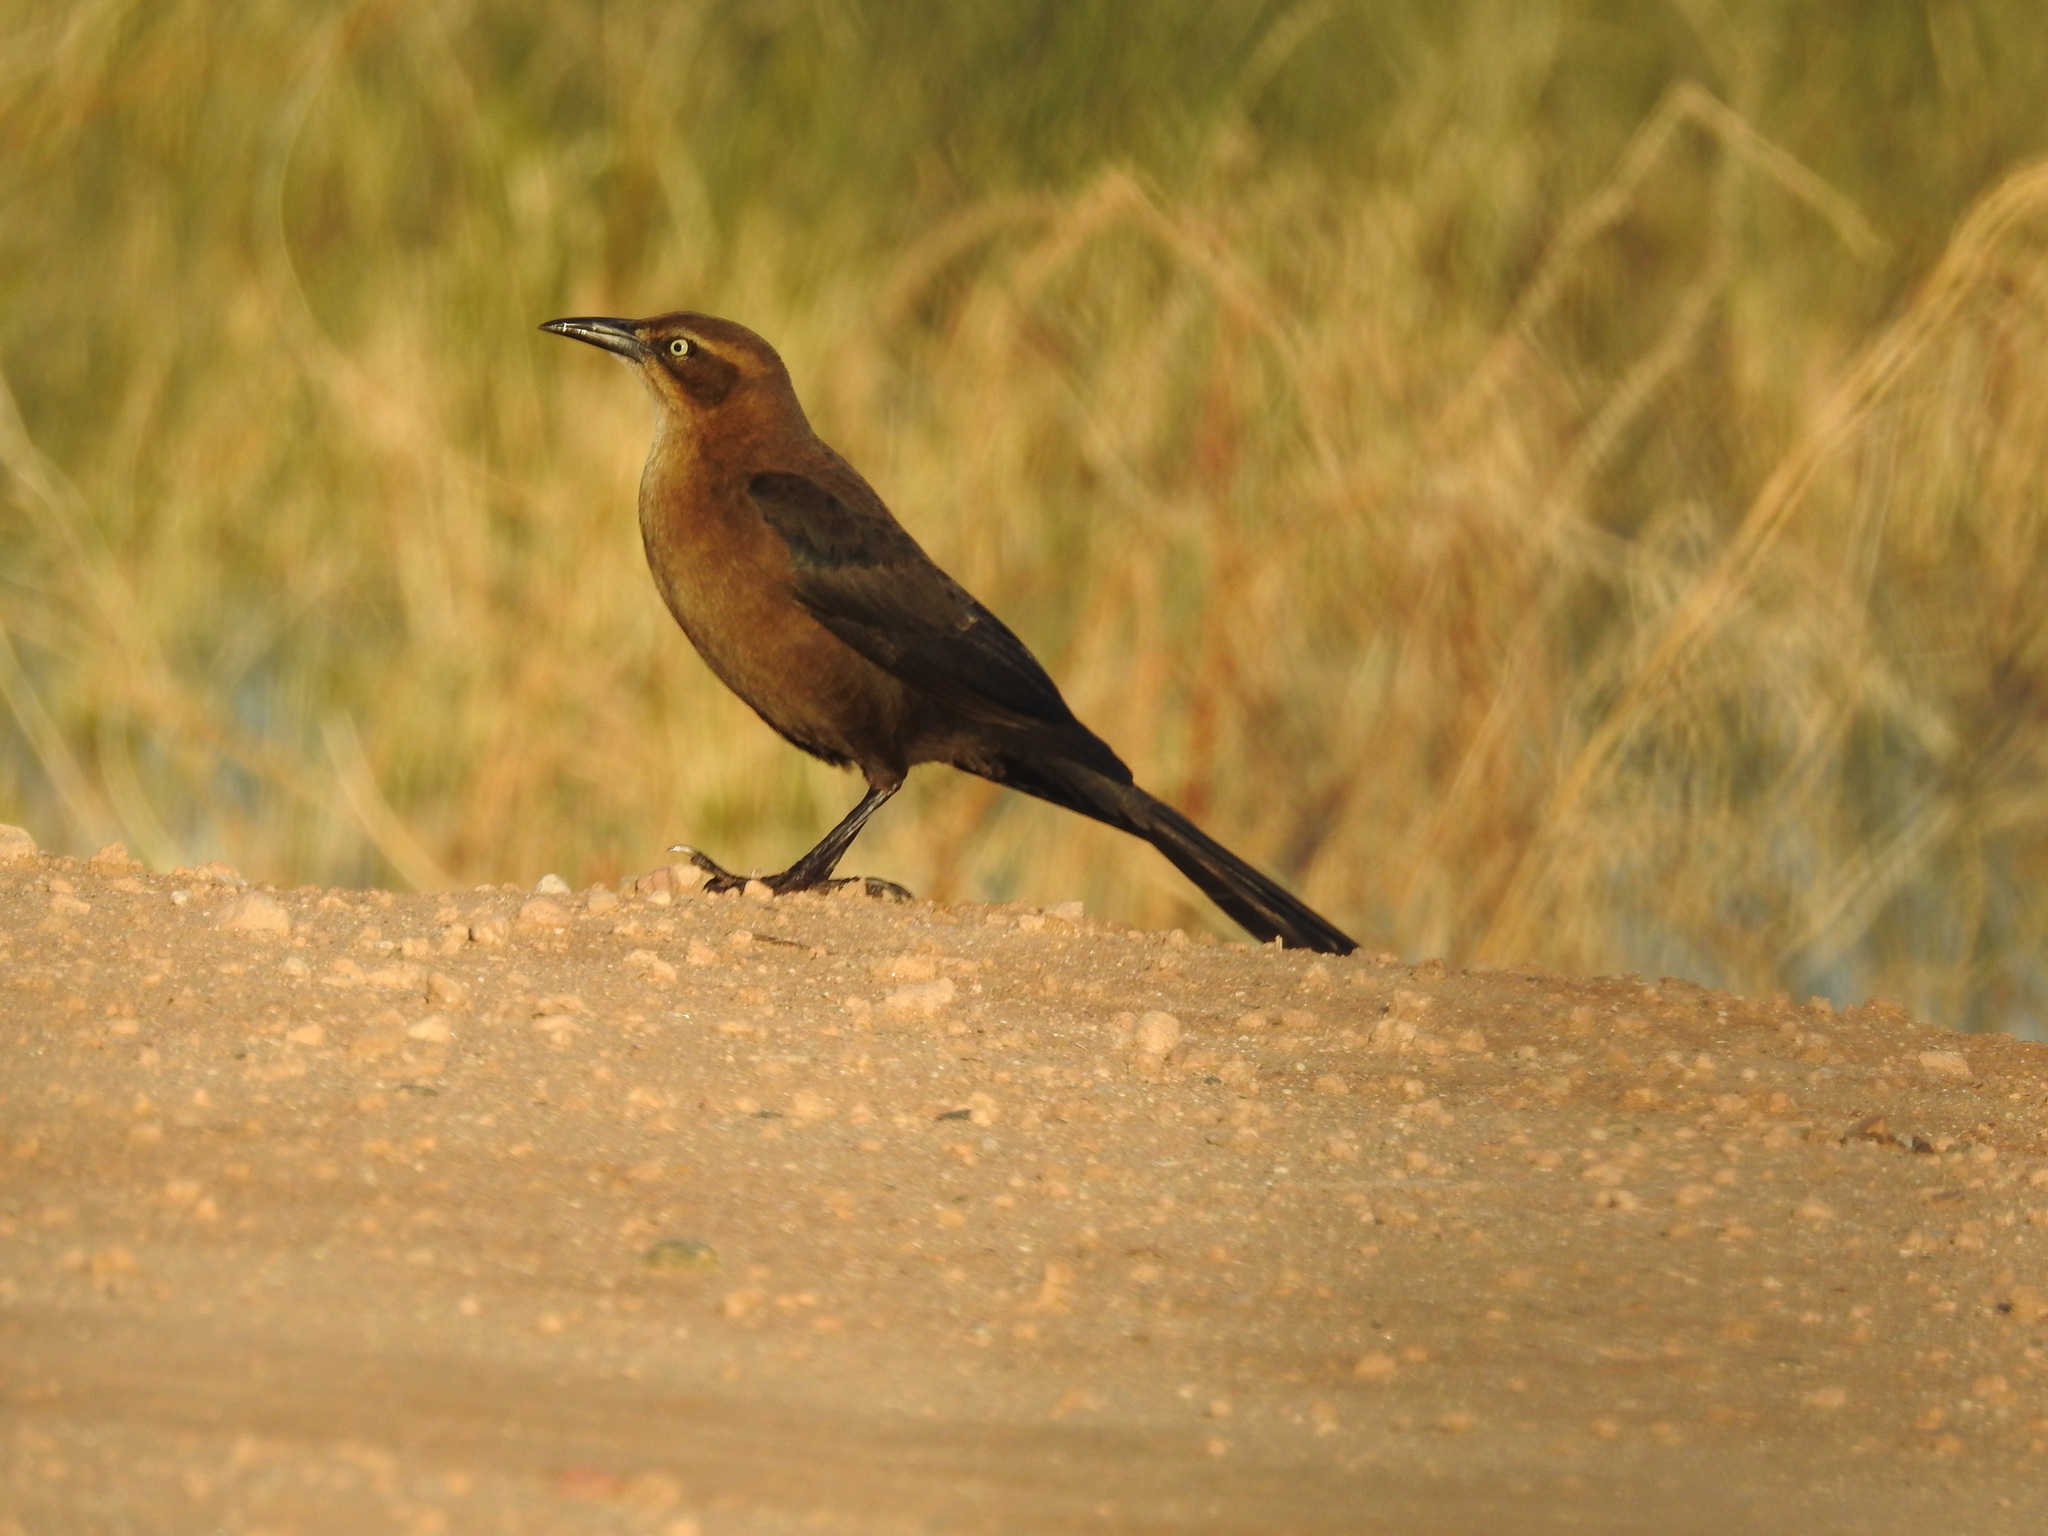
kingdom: Animalia
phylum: Chordata
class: Aves
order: Passeriformes
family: Icteridae
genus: Quiscalus
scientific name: Quiscalus mexicanus
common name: Great-tailed grackle
